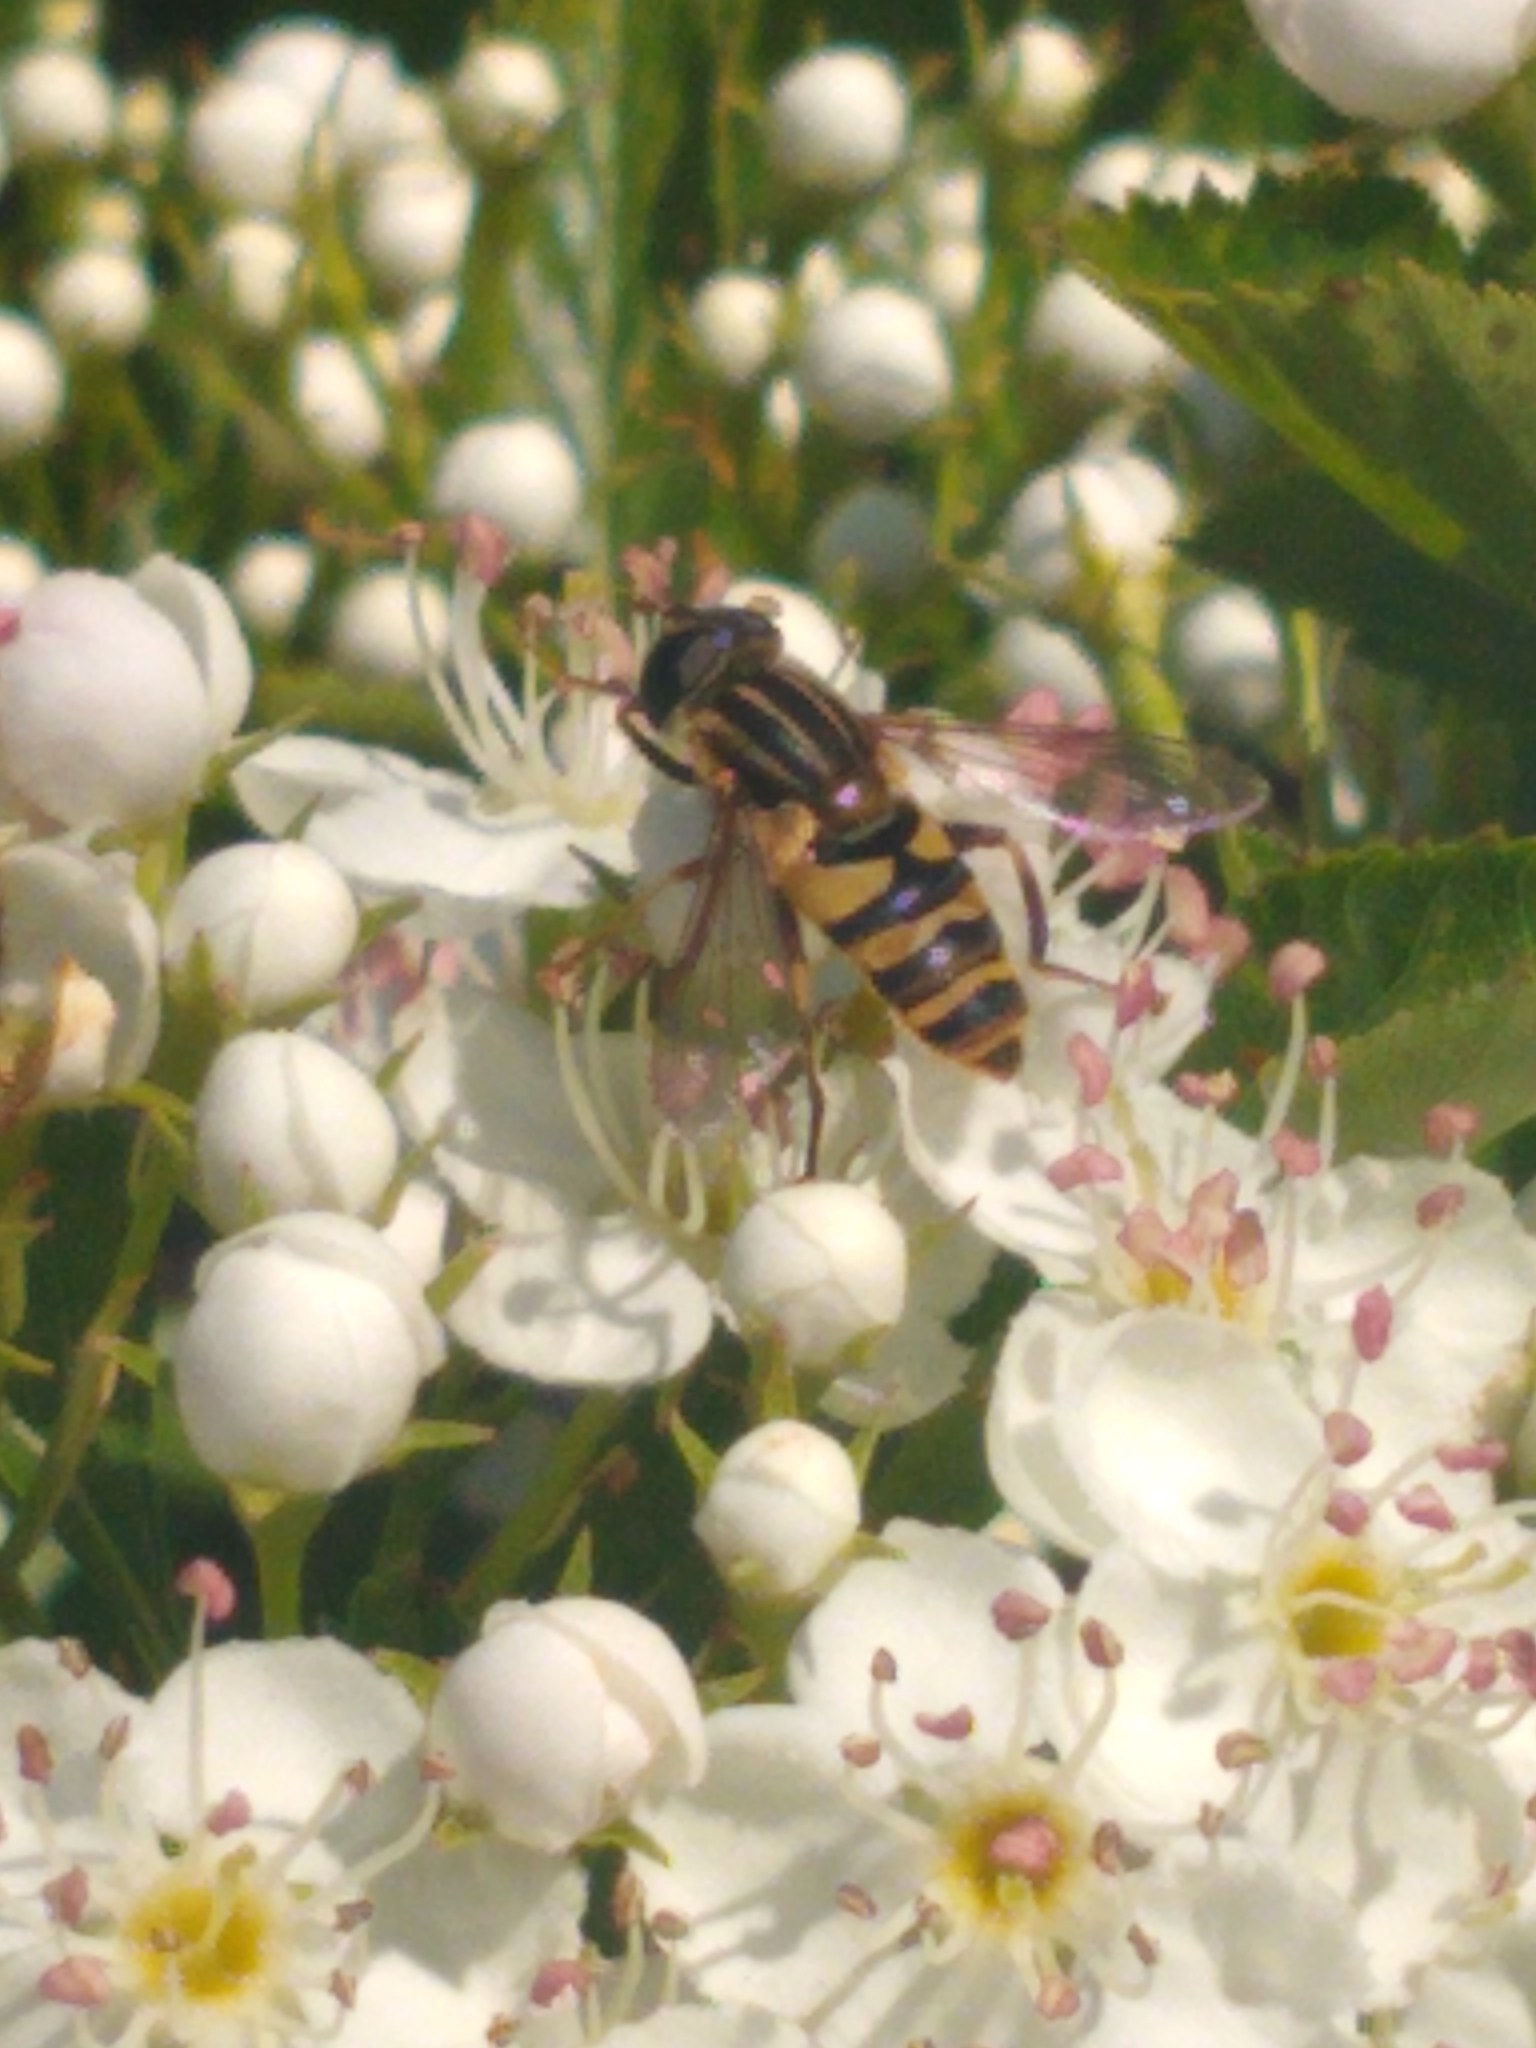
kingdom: Animalia
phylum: Arthropoda
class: Insecta
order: Diptera
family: Syrphidae
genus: Helophilus
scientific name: Helophilus fasciatus
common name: Narrow-headed marsh fly
